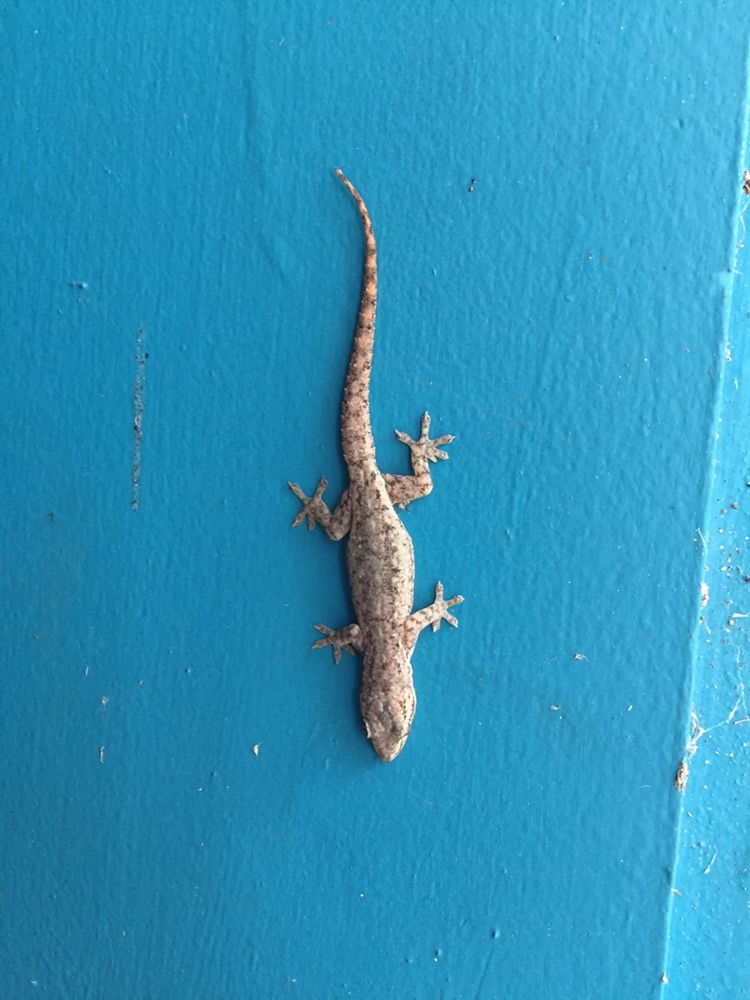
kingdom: Animalia
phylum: Chordata
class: Squamata
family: Gekkonidae
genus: Hemidactylus
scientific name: Hemidactylus frenatus
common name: Common house gecko
